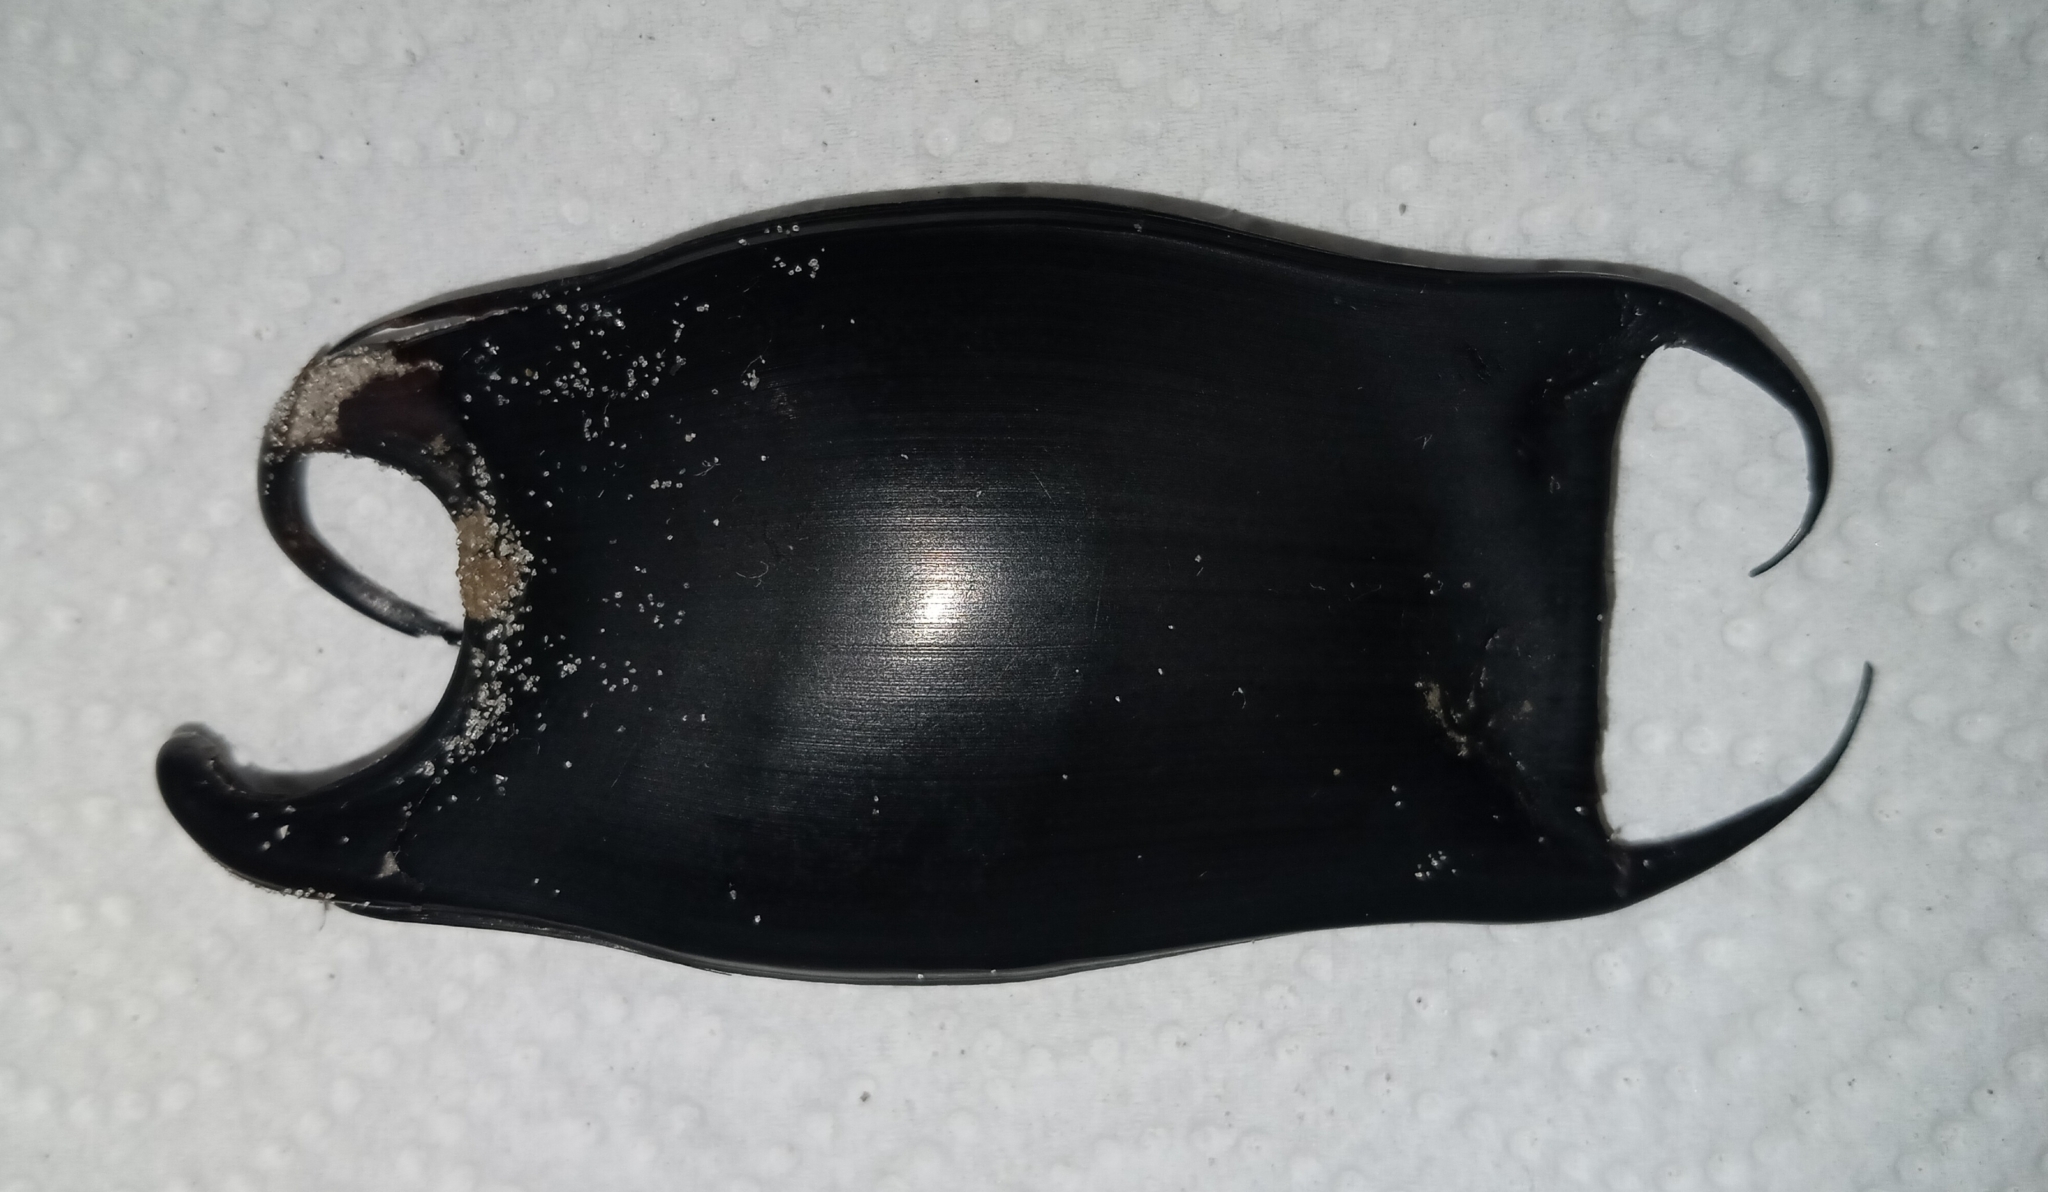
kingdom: Animalia
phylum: Chordata
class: Elasmobranchii
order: Rajiformes
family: Rajidae
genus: Raja
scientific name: Raja eglanteria
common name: Clearnose skate
